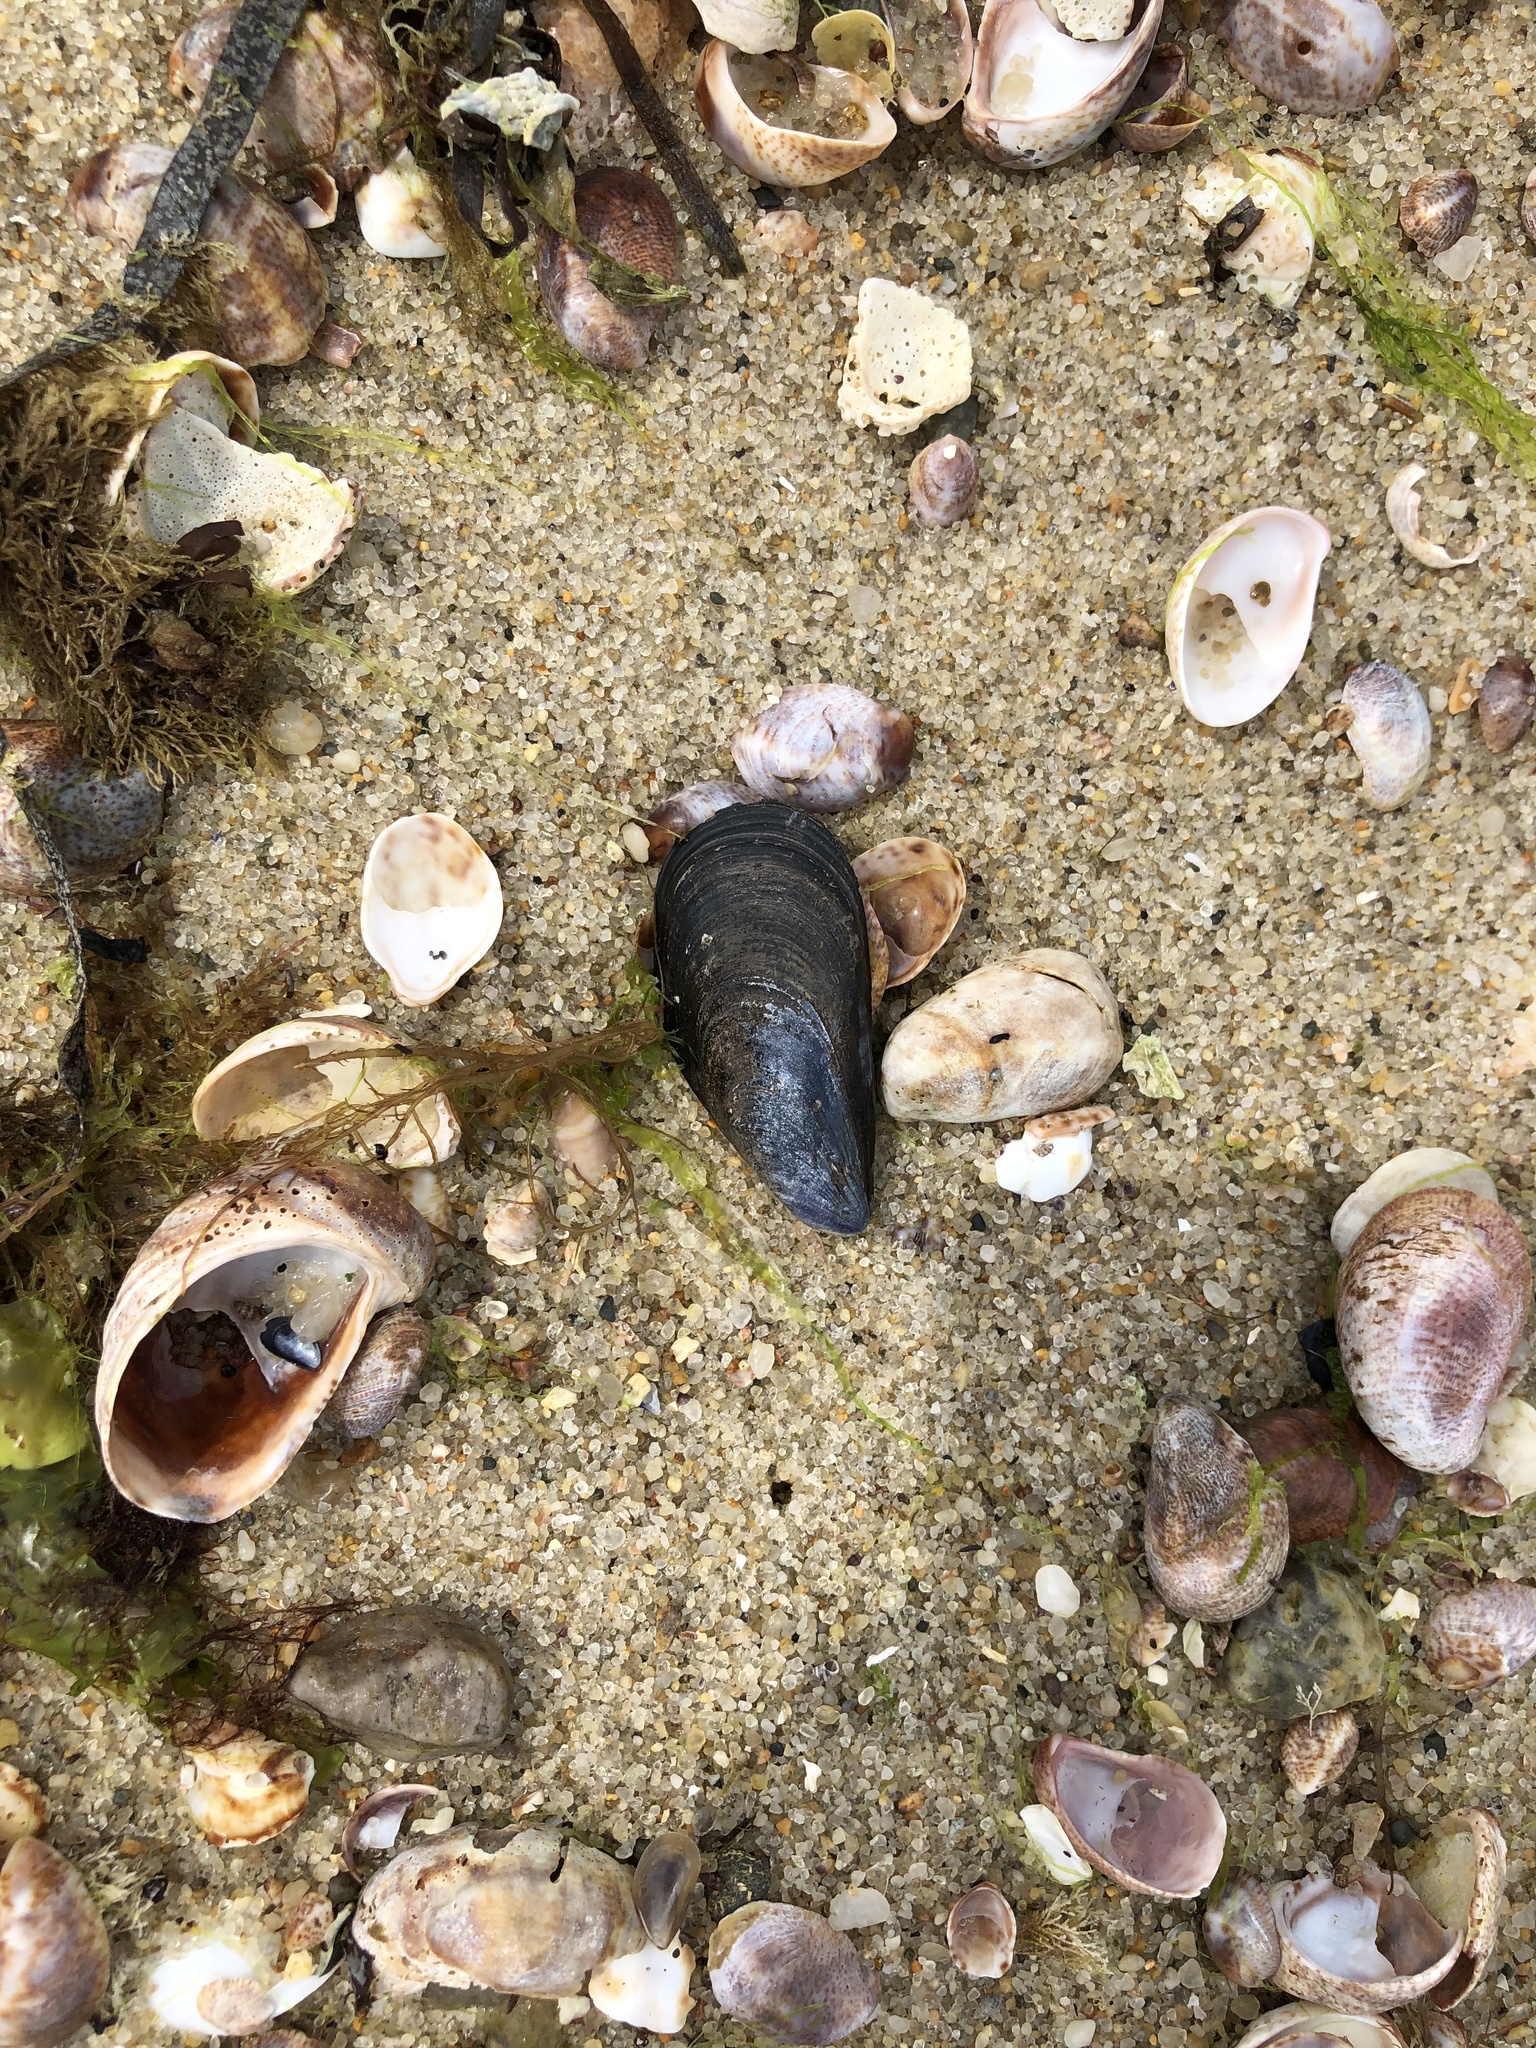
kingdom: Animalia
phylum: Mollusca
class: Bivalvia
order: Mytilida
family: Mytilidae
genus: Mytilus
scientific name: Mytilus edulis
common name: Blue mussel
